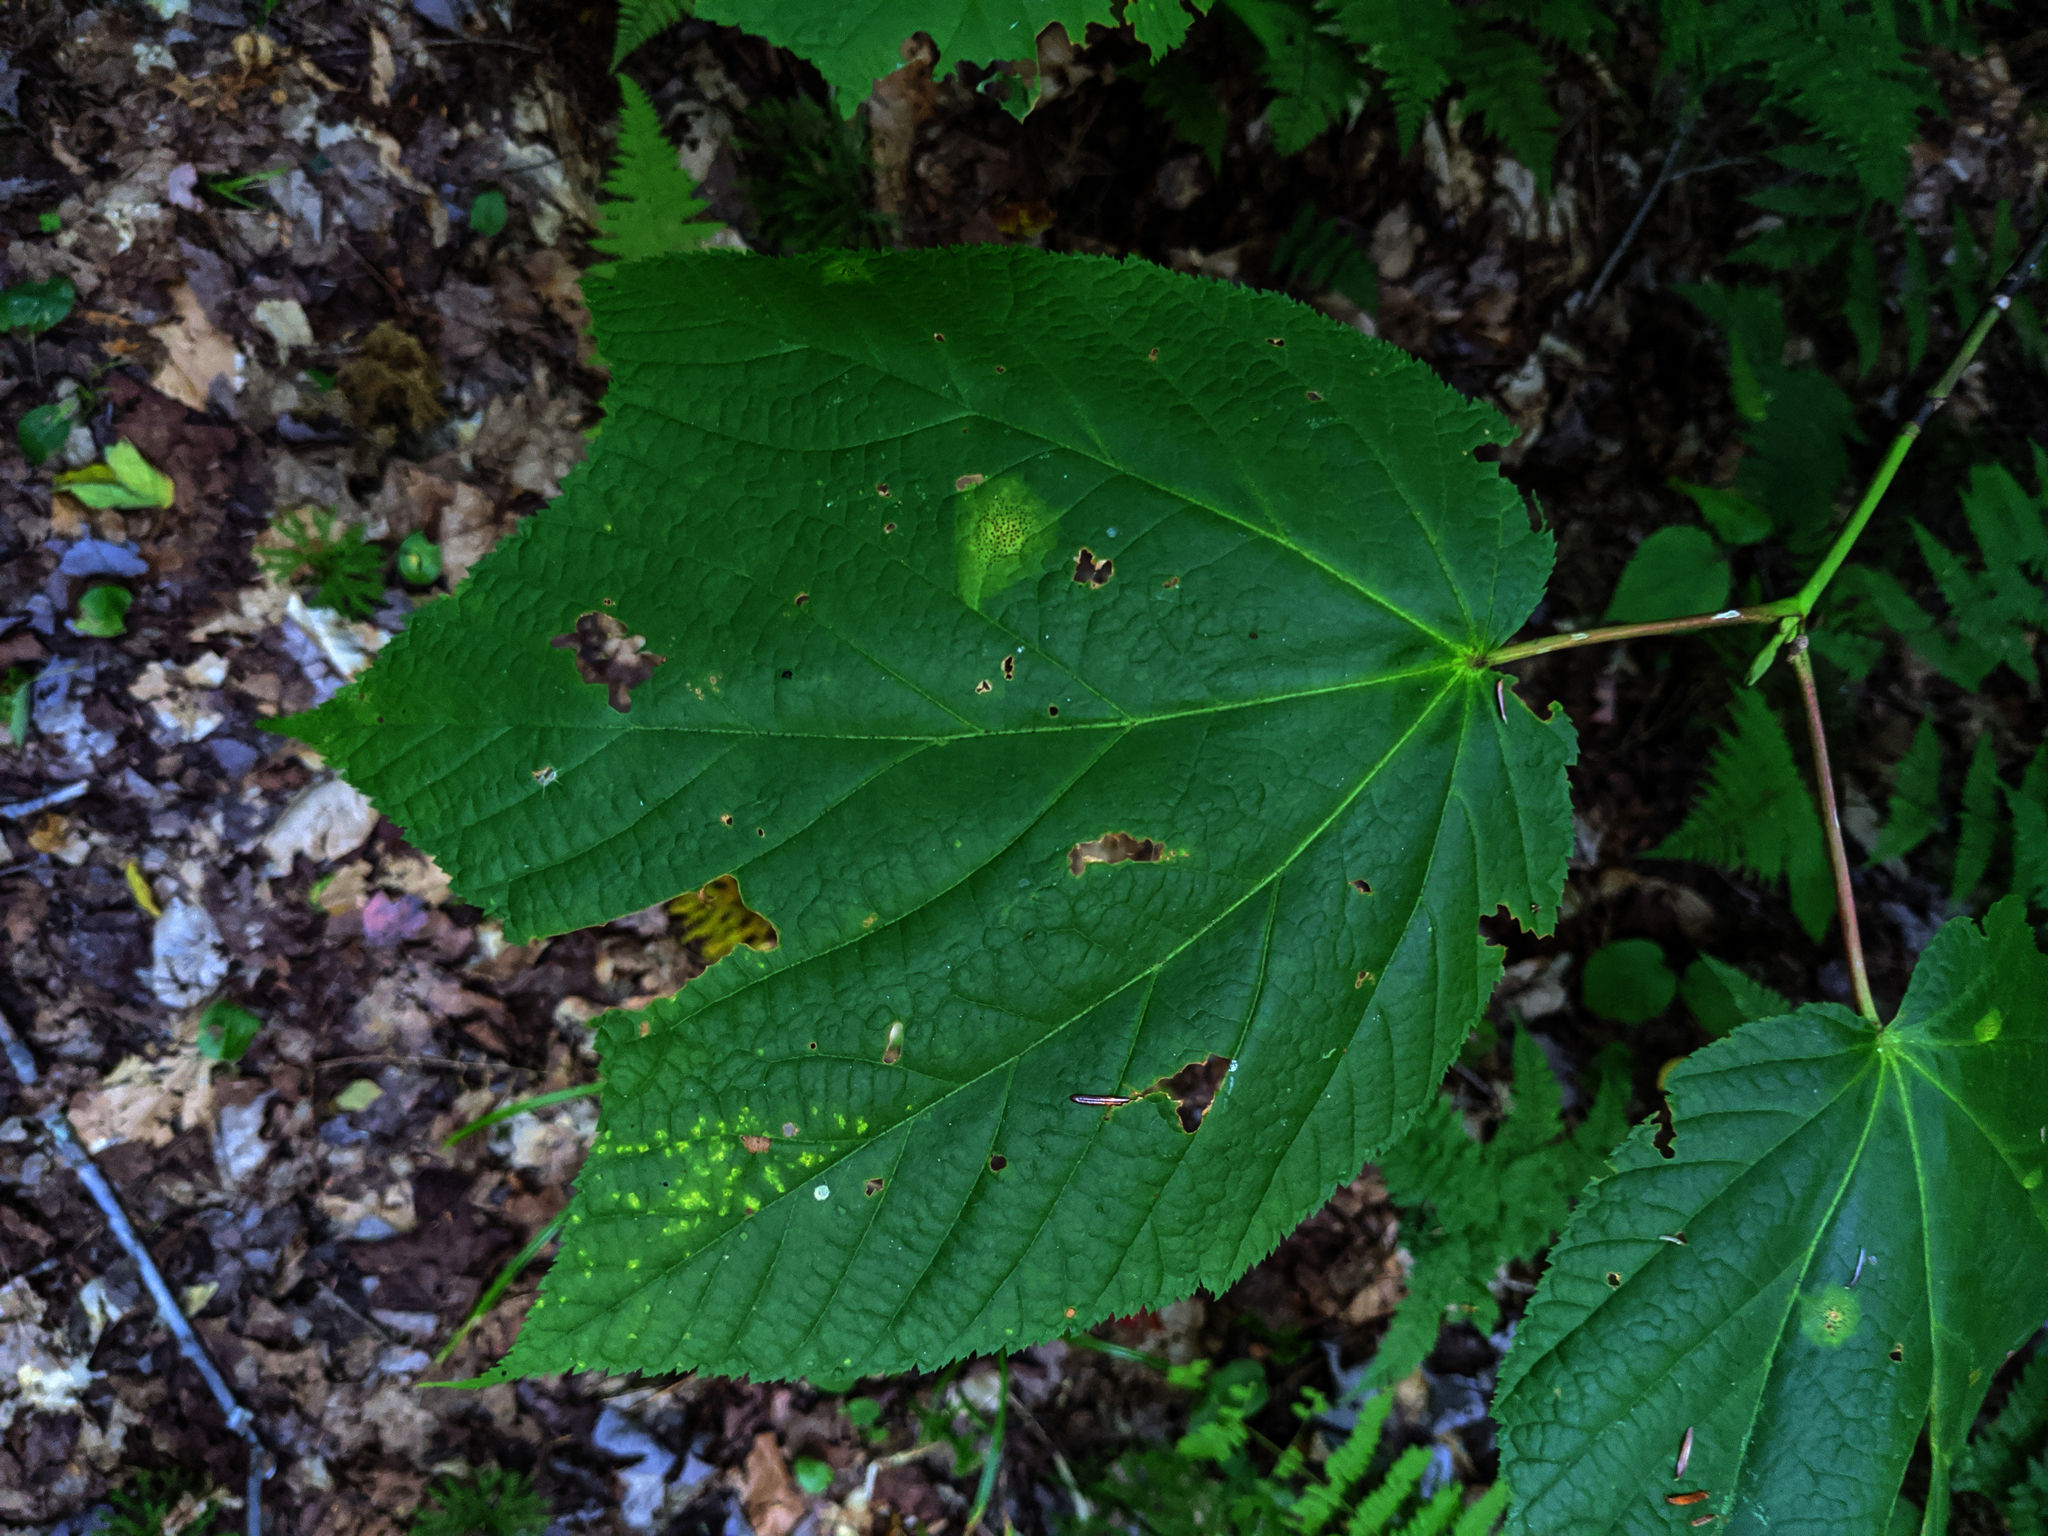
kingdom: Plantae
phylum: Tracheophyta
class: Magnoliopsida
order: Sapindales
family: Sapindaceae
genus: Acer
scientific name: Acer pensylvanicum
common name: Moosewood
